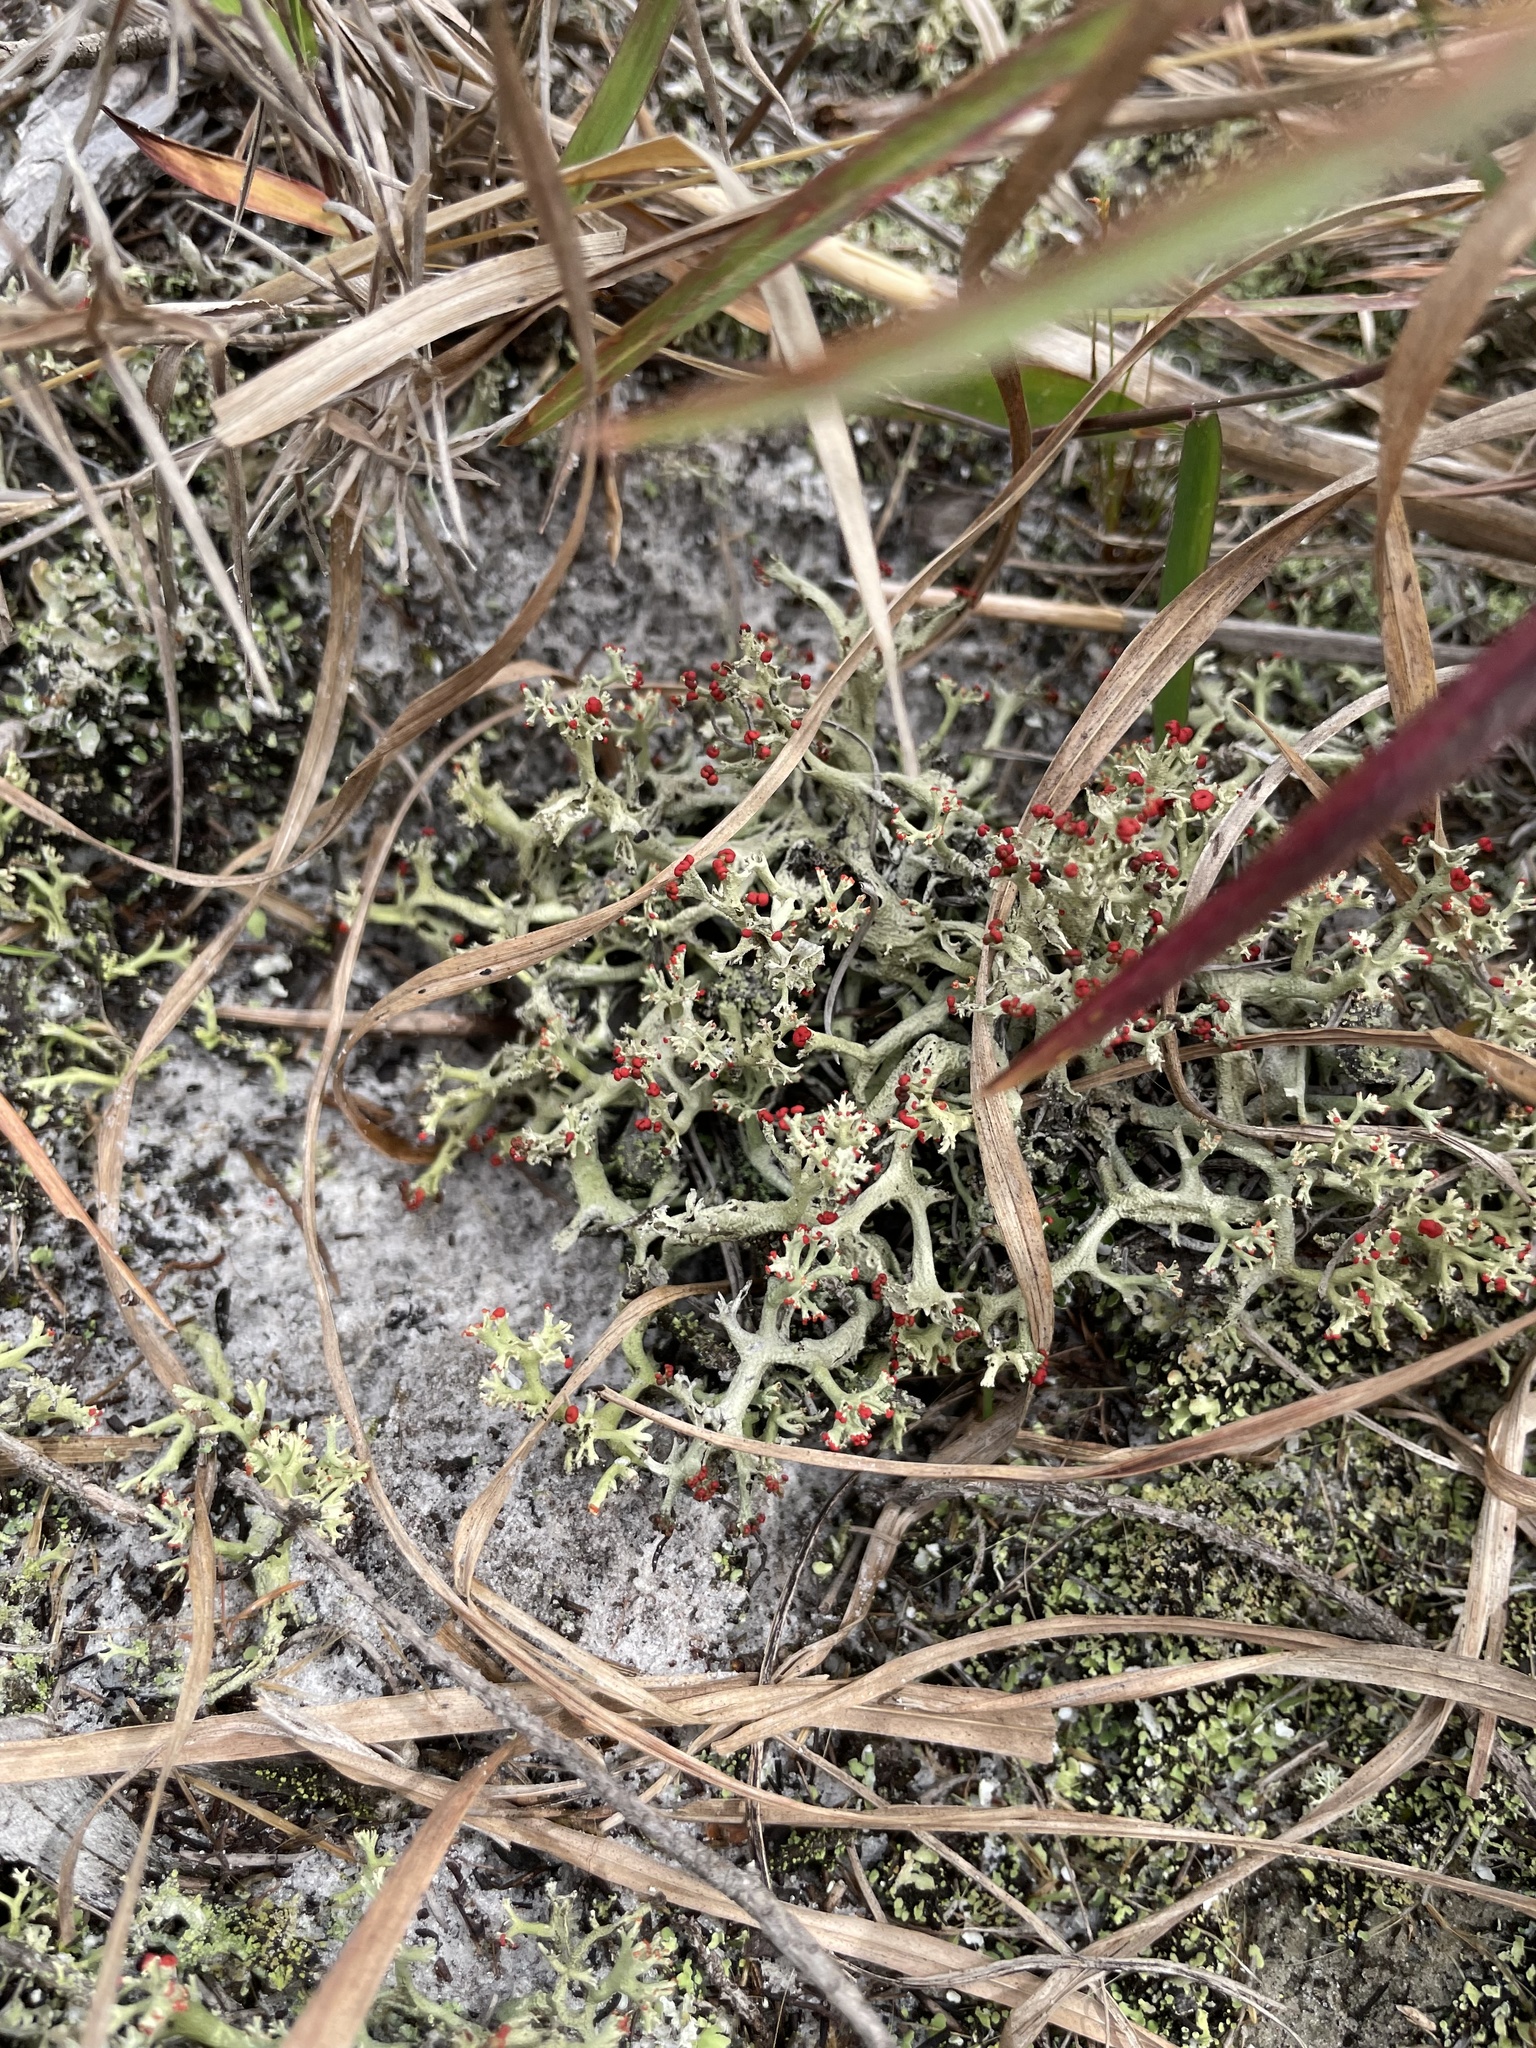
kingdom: Fungi
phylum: Ascomycota
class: Lecanoromycetes
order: Lecanorales
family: Cladoniaceae
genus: Cladonia
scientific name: Cladonia leporina
